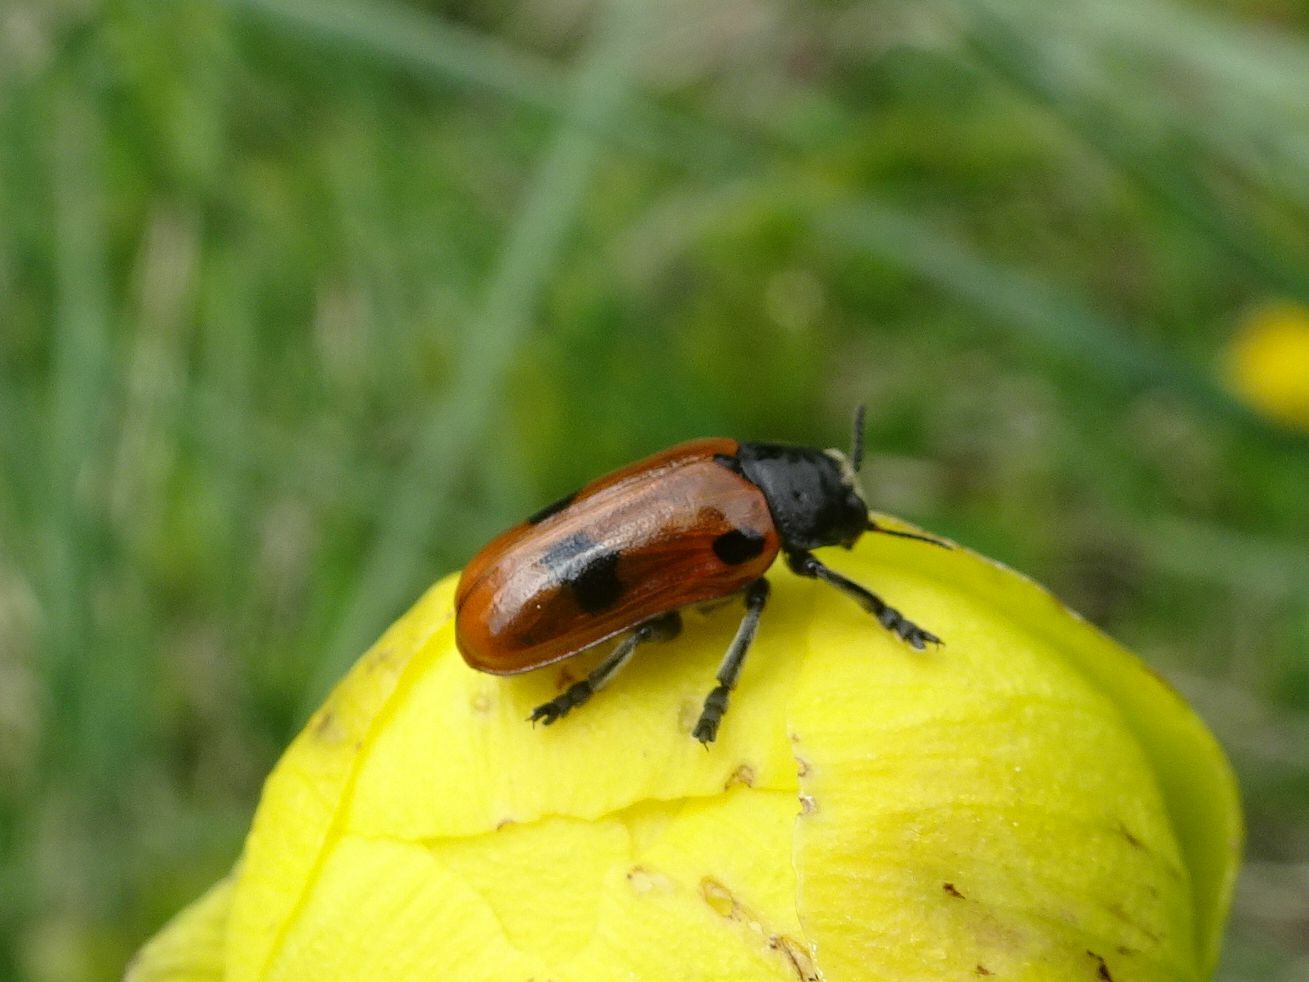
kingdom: Animalia
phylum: Arthropoda
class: Insecta
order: Coleoptera
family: Chrysomelidae
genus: Clytra
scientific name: Clytra quadripunctata
